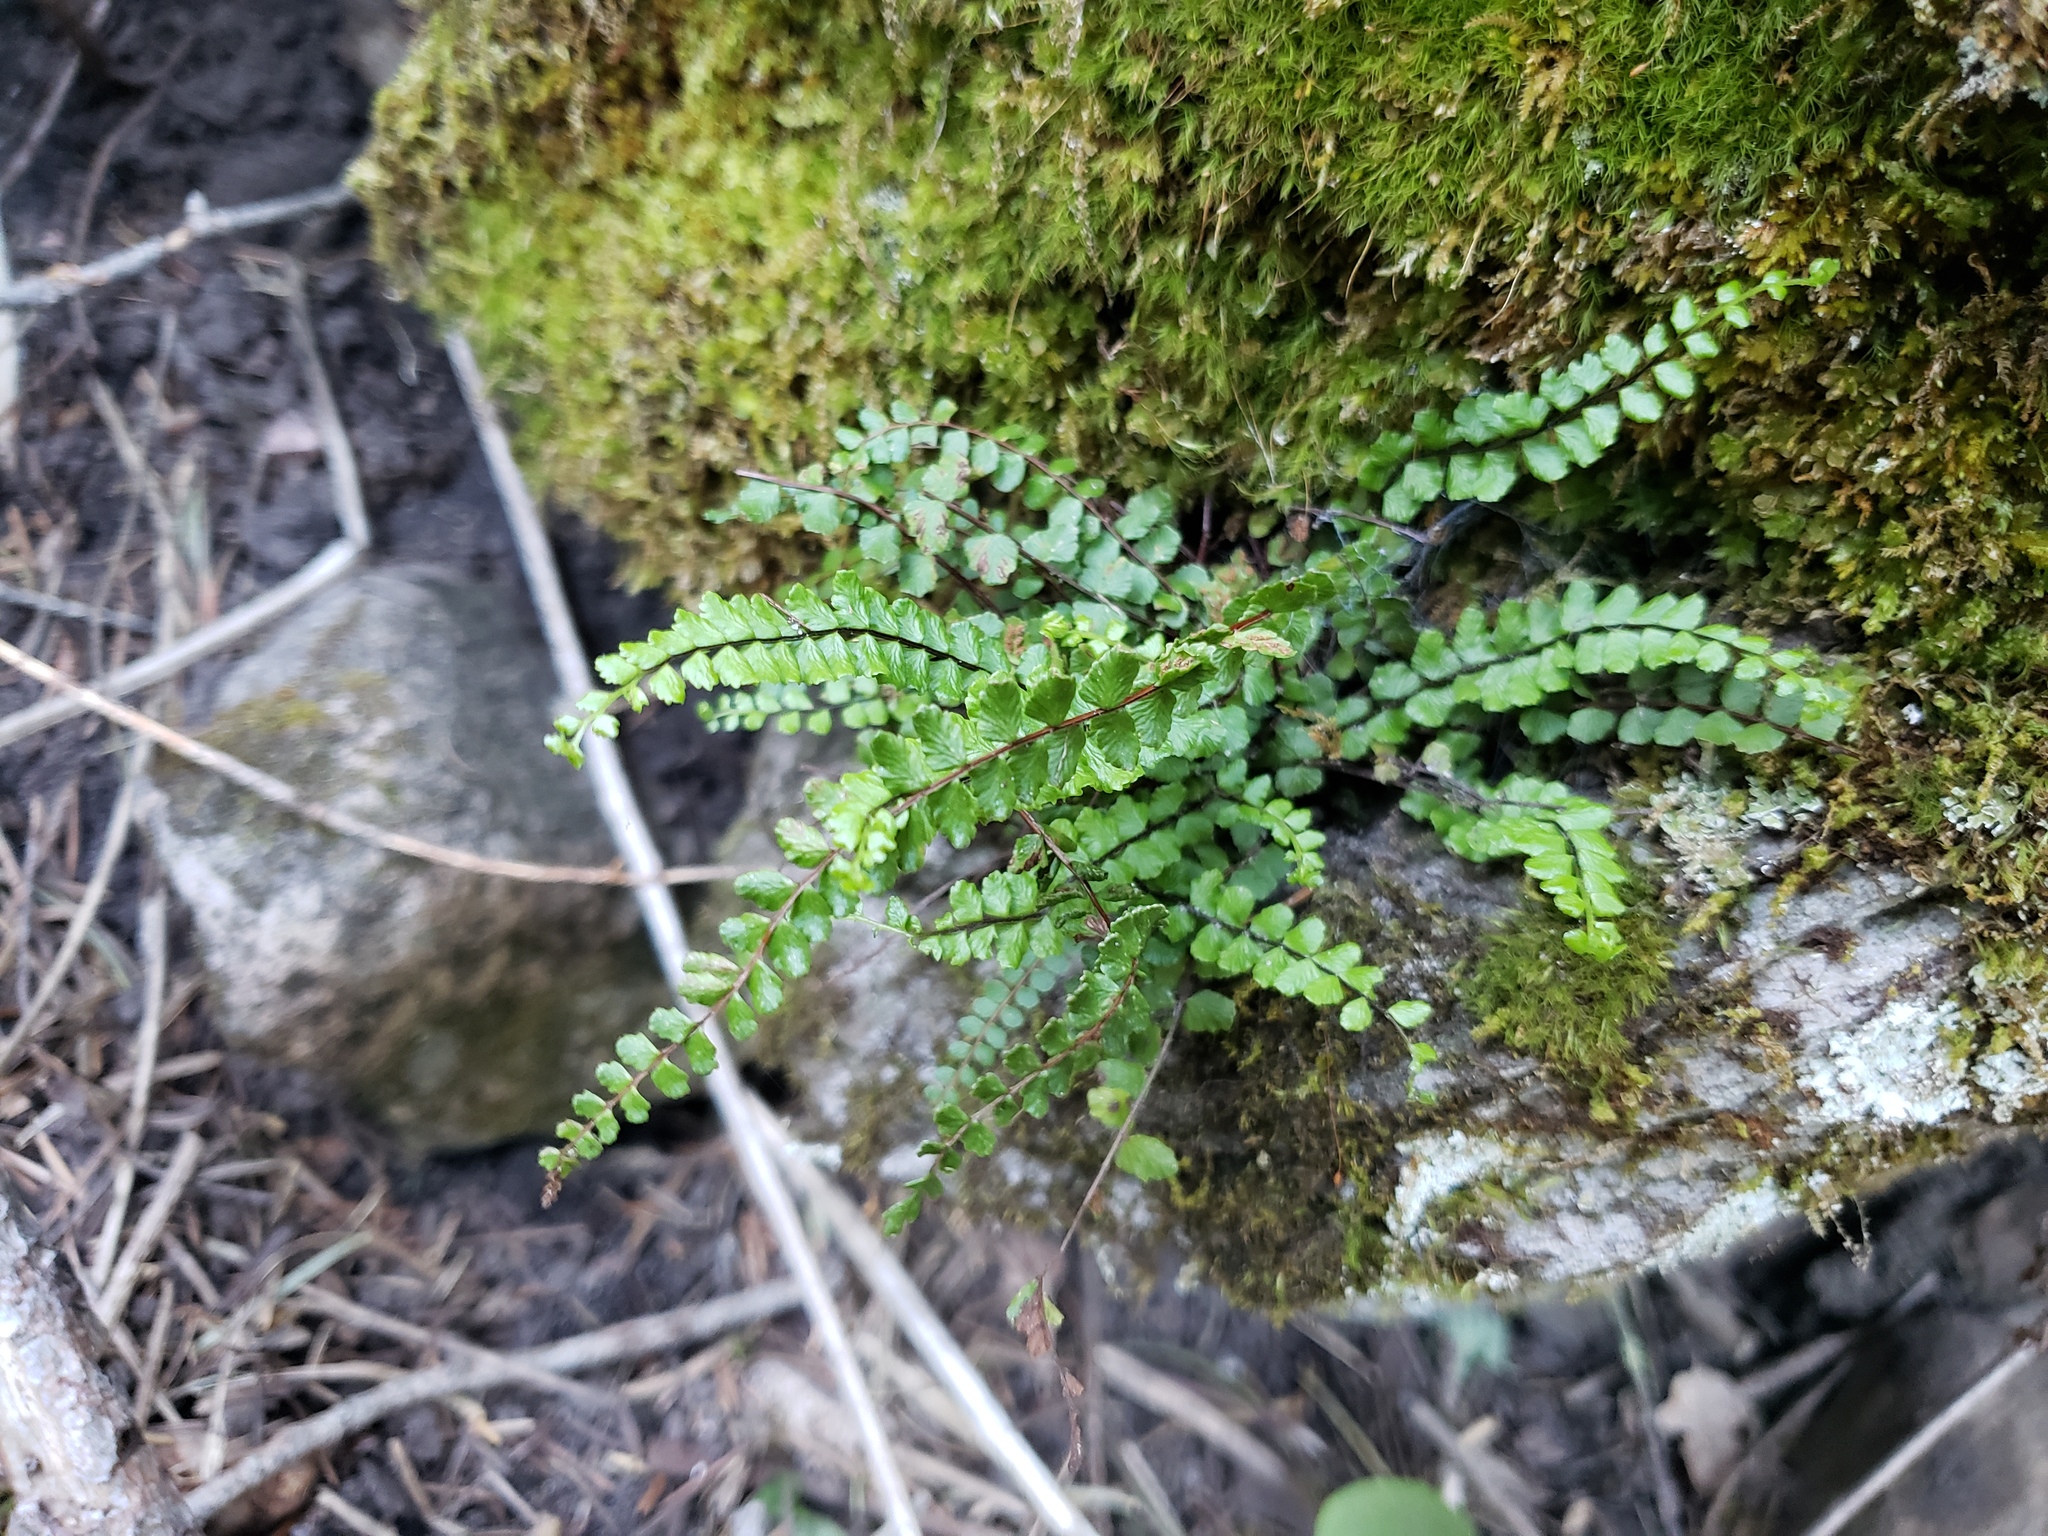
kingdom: Plantae
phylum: Tracheophyta
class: Polypodiopsida
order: Polypodiales
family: Aspleniaceae
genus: Asplenium
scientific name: Asplenium trichomanes
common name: Maidenhair spleenwort
